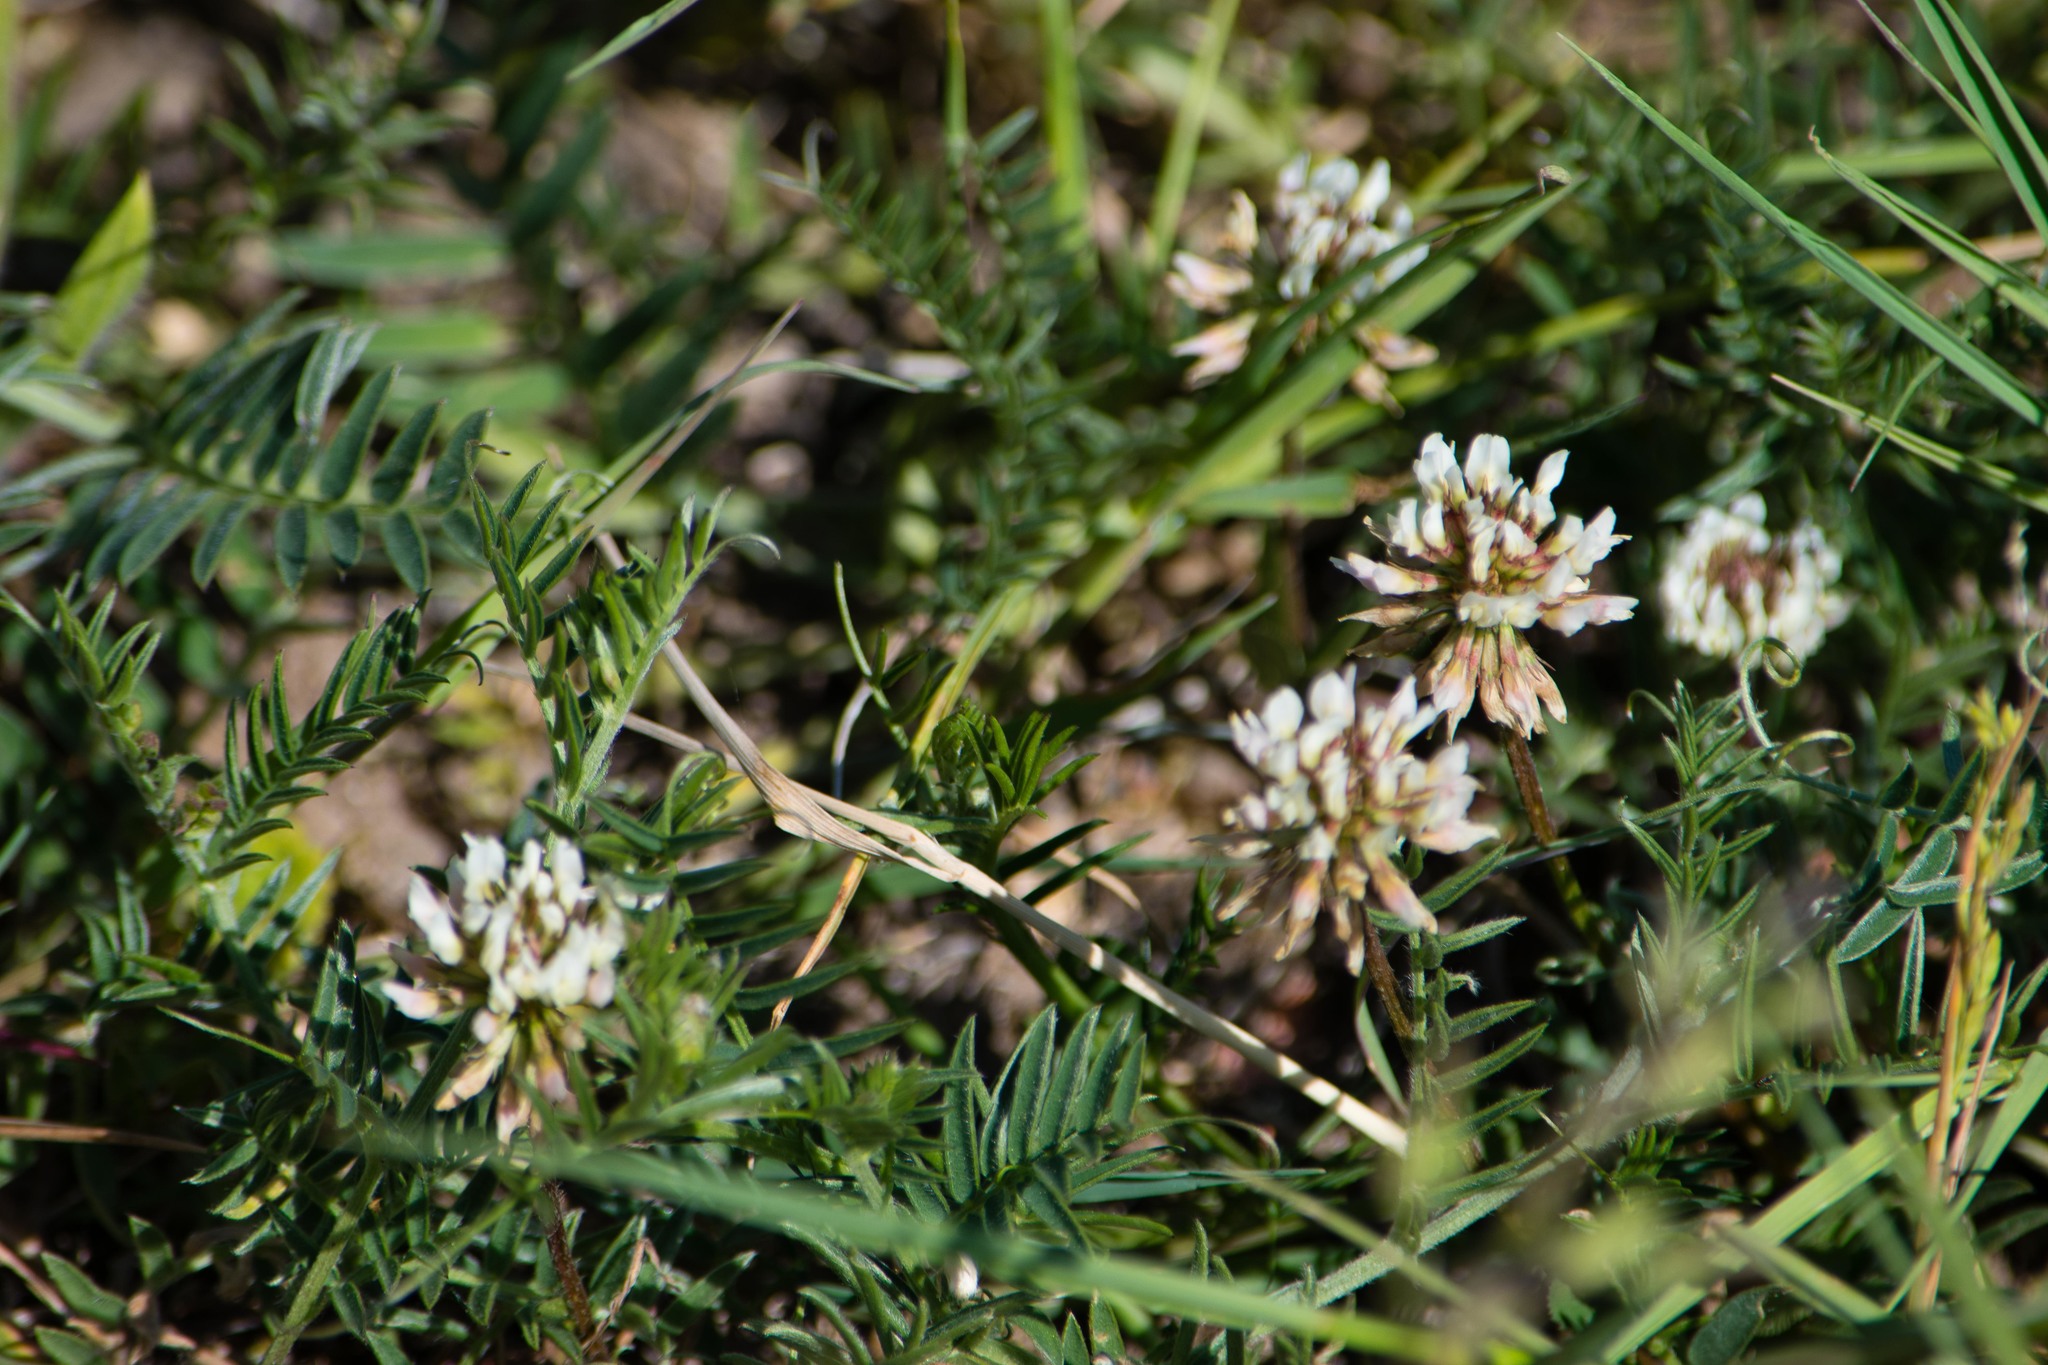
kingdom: Plantae
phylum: Tracheophyta
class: Magnoliopsida
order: Fabales
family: Fabaceae
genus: Trifolium
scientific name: Trifolium repens
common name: White clover
